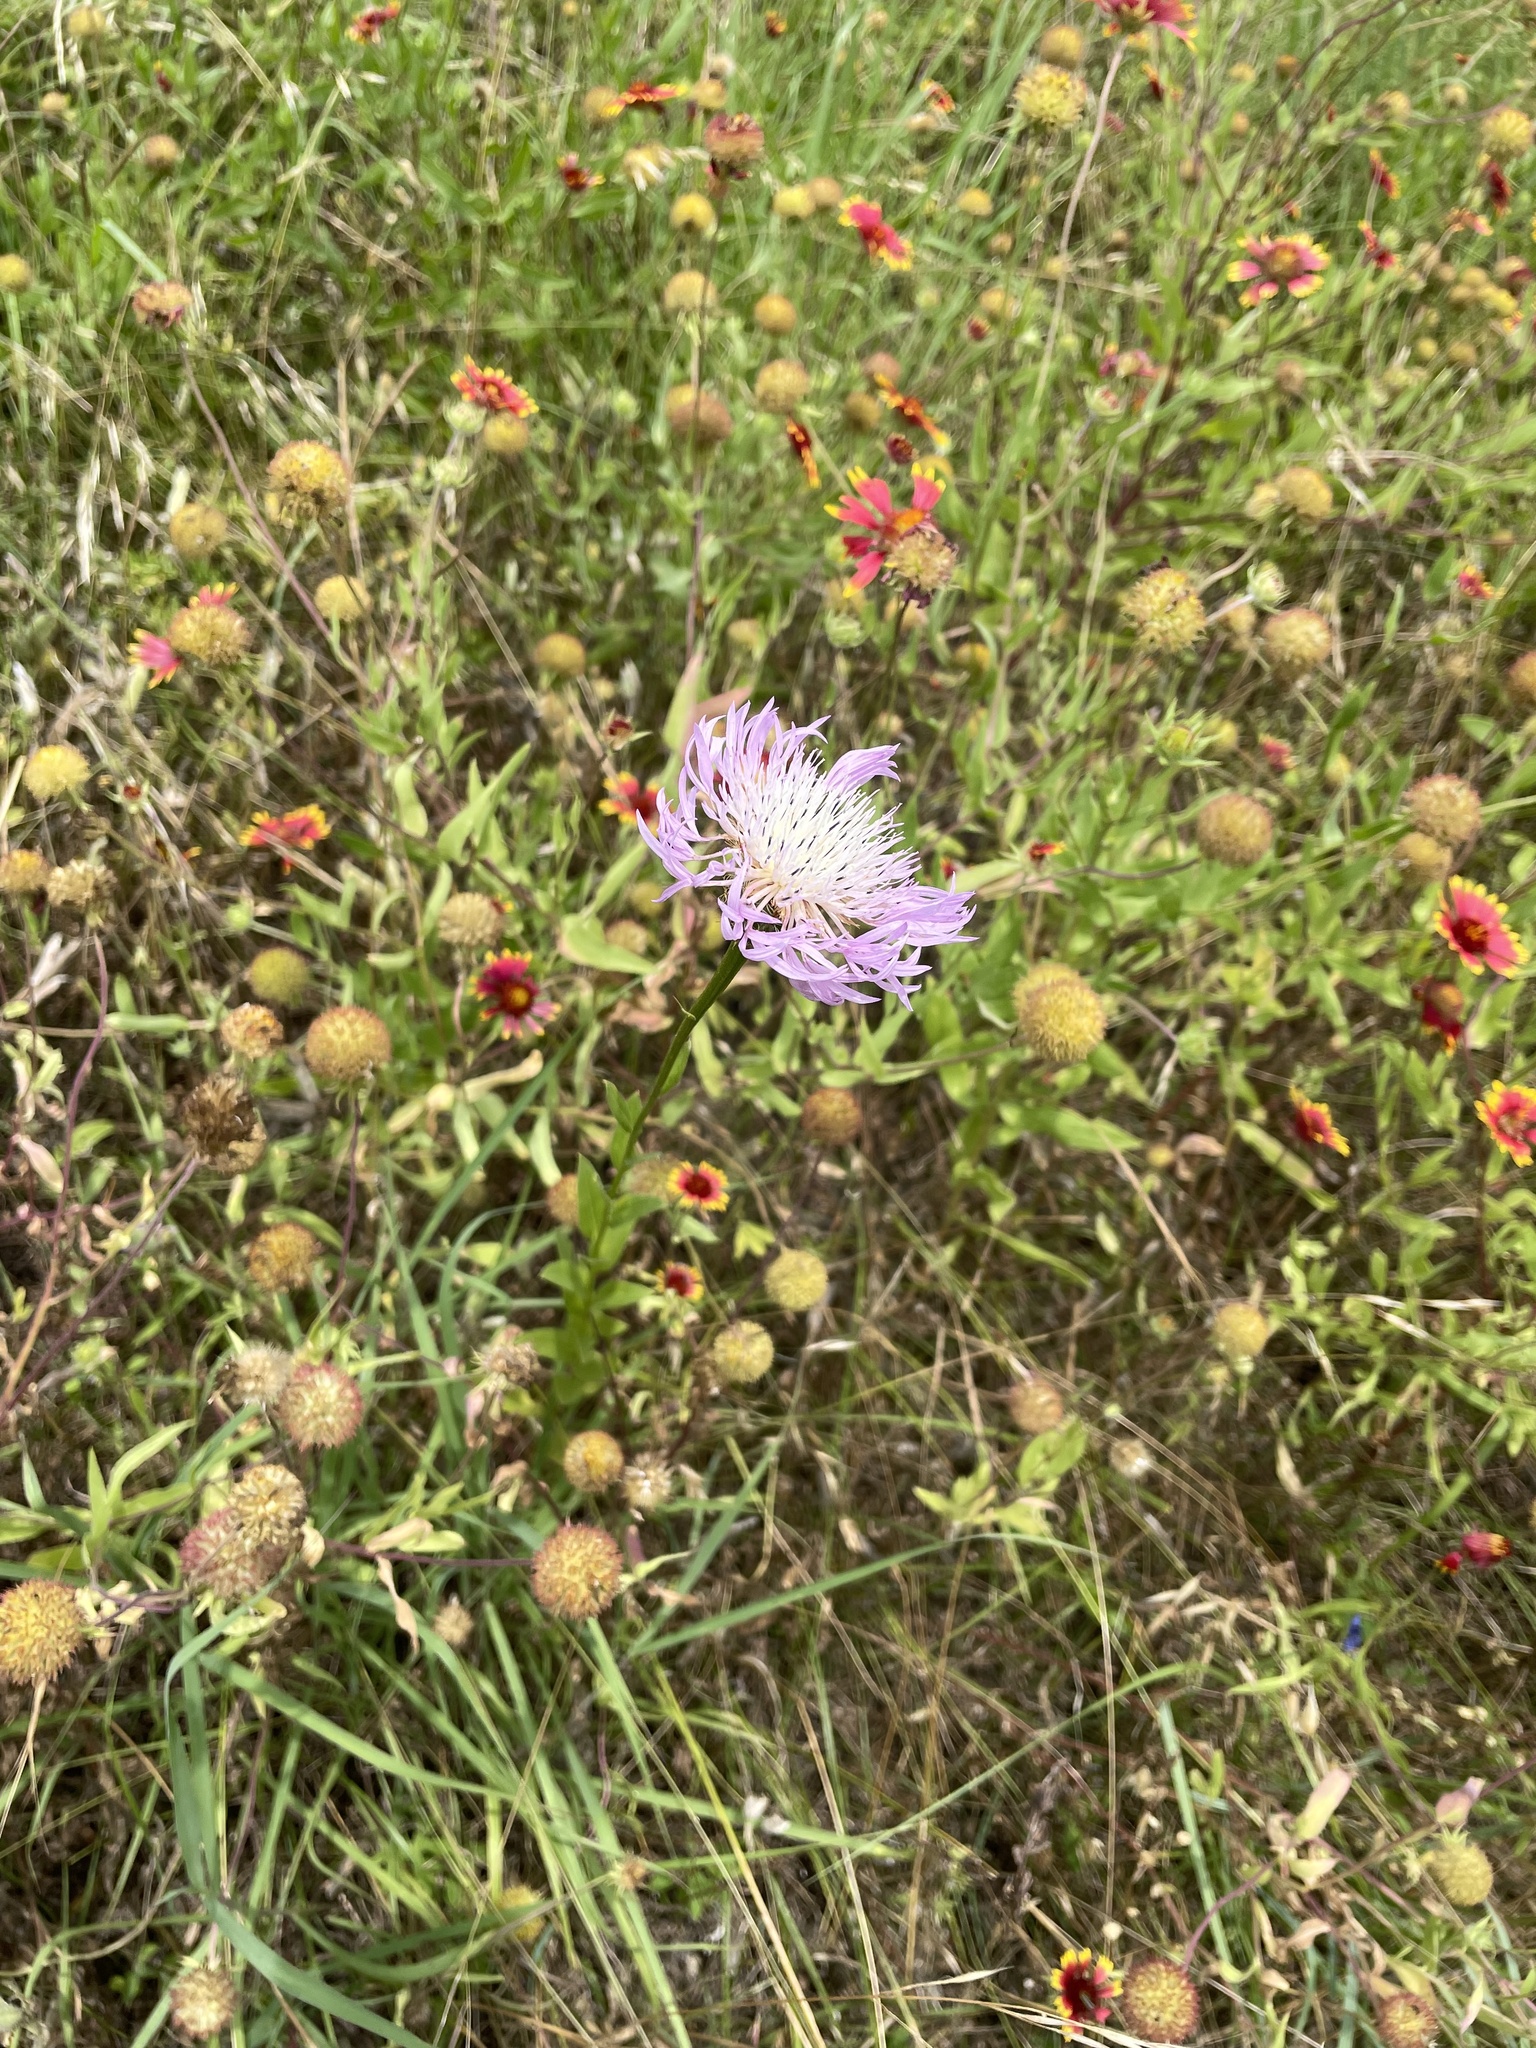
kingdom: Plantae
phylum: Tracheophyta
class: Magnoliopsida
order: Asterales
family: Asteraceae
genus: Plectocephalus
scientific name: Plectocephalus americanus
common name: American basket-flower
